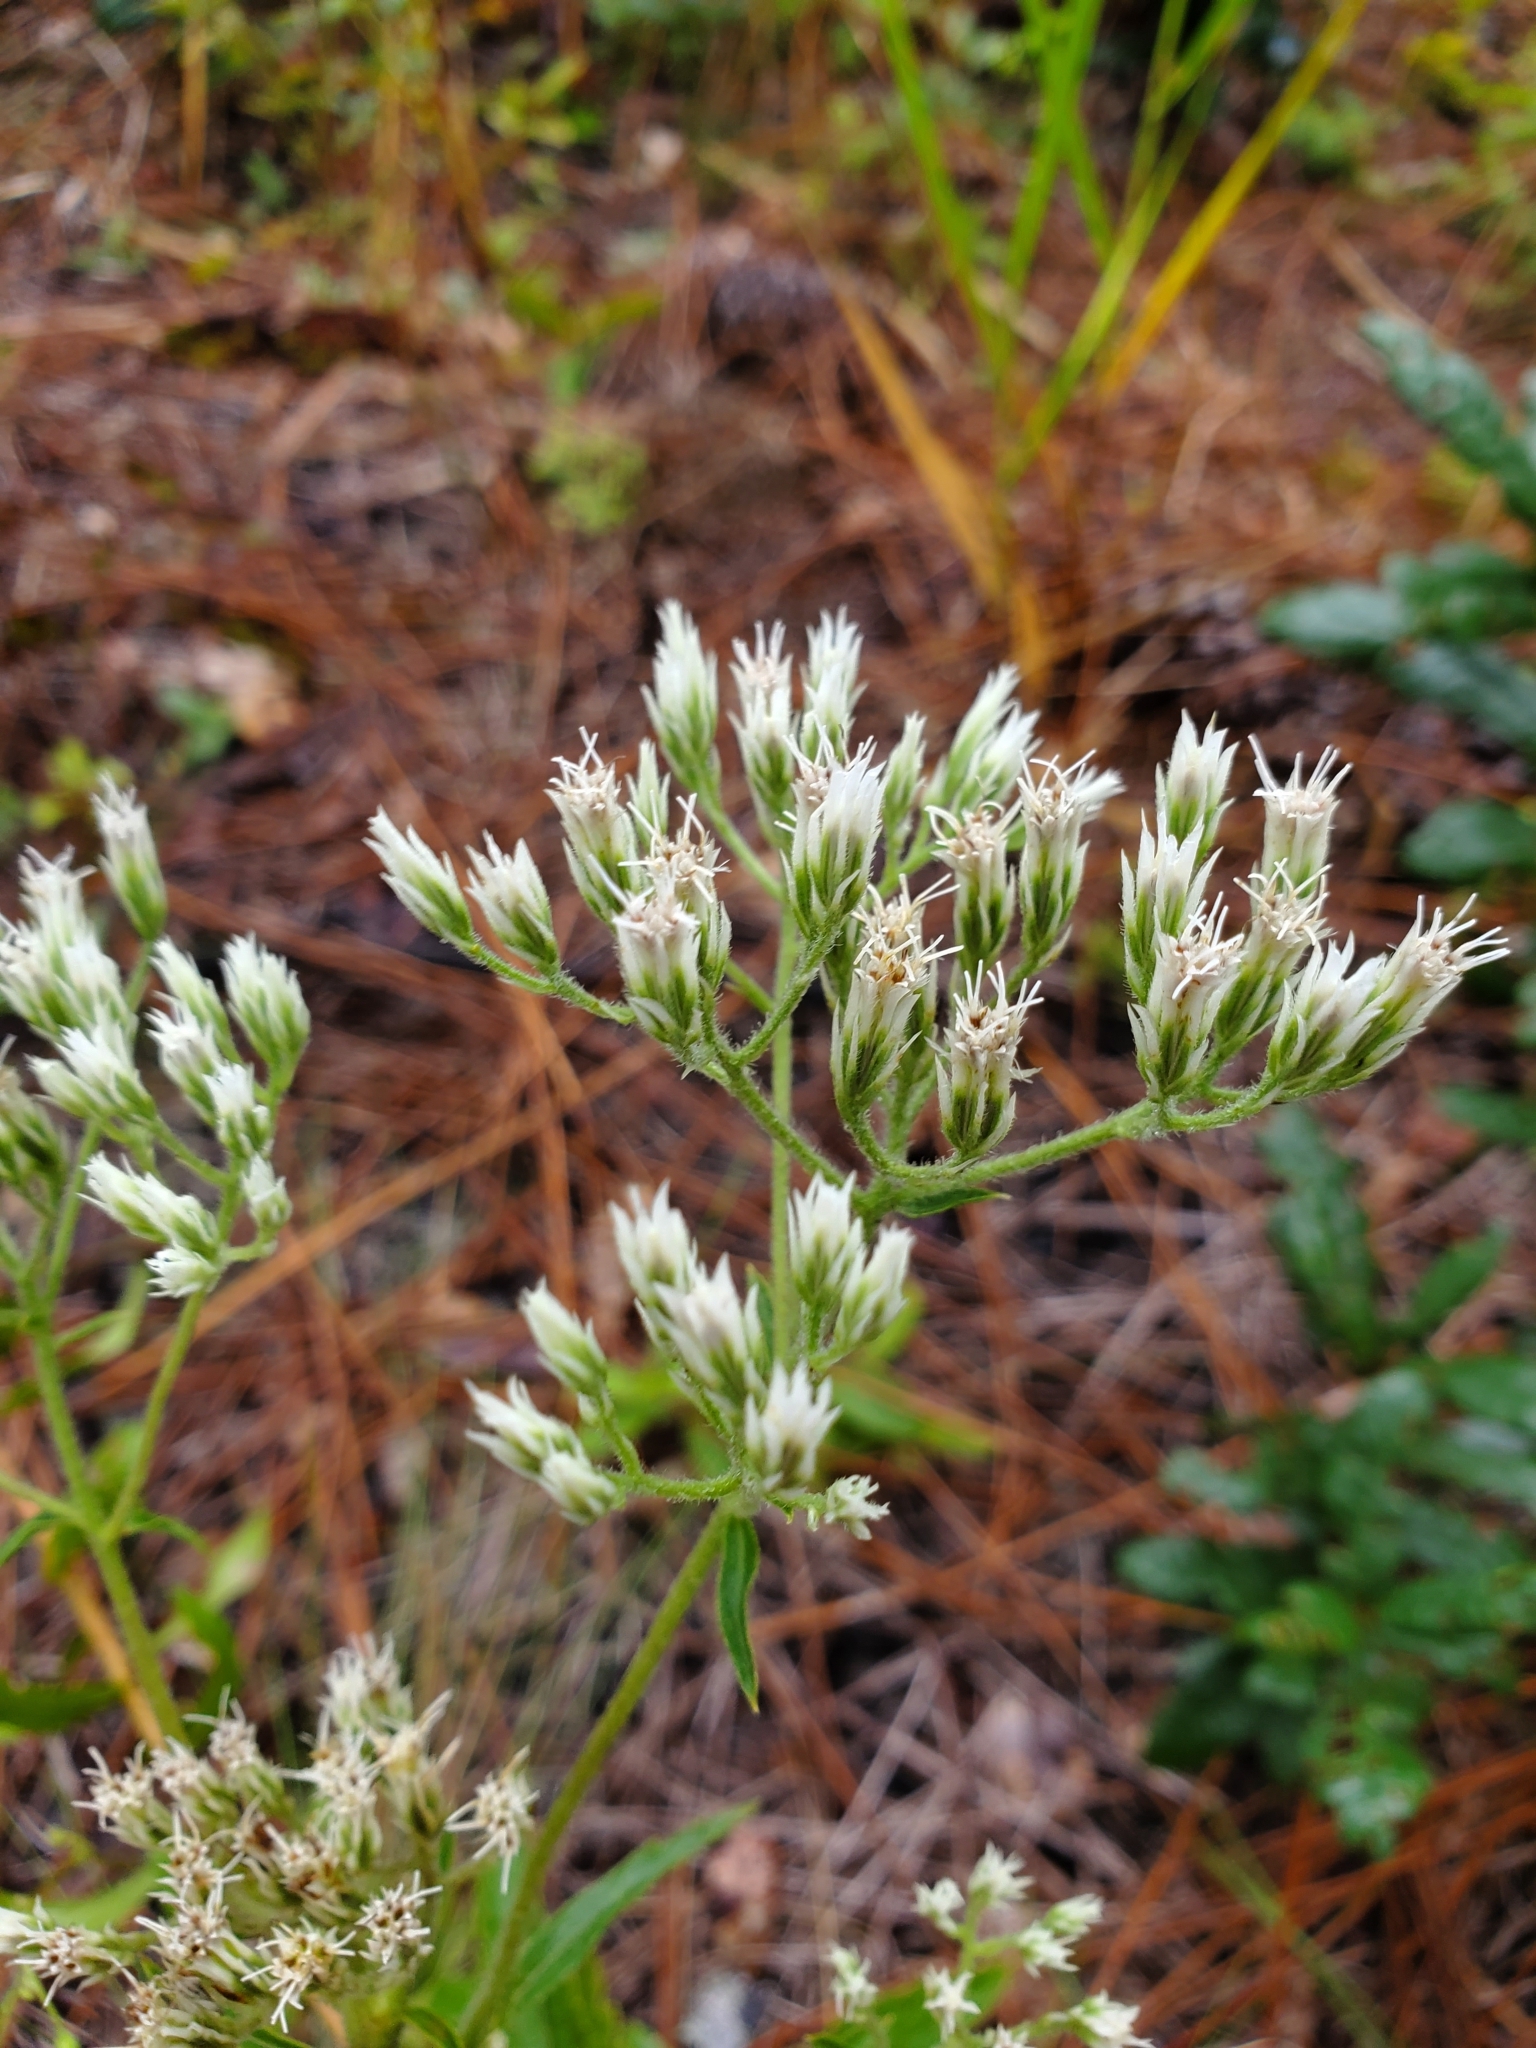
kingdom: Plantae
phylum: Tracheophyta
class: Magnoliopsida
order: Asterales
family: Asteraceae
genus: Eupatorium
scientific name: Eupatorium album
